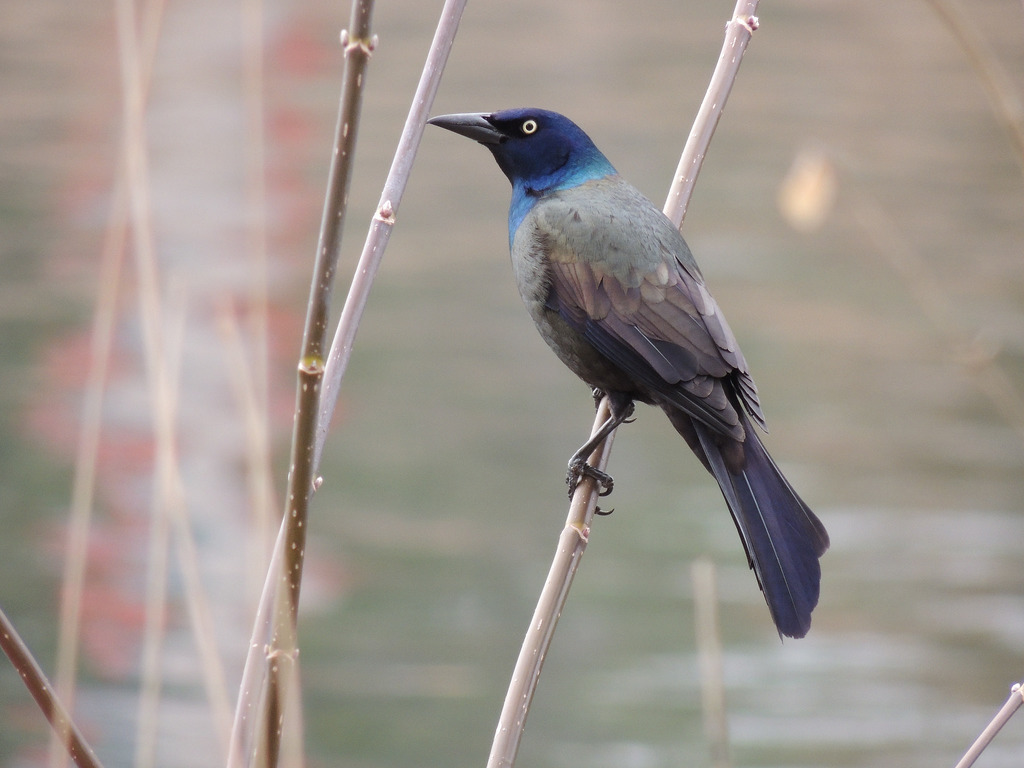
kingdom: Animalia
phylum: Chordata
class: Aves
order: Passeriformes
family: Icteridae
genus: Quiscalus
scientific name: Quiscalus quiscula
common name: Common grackle
